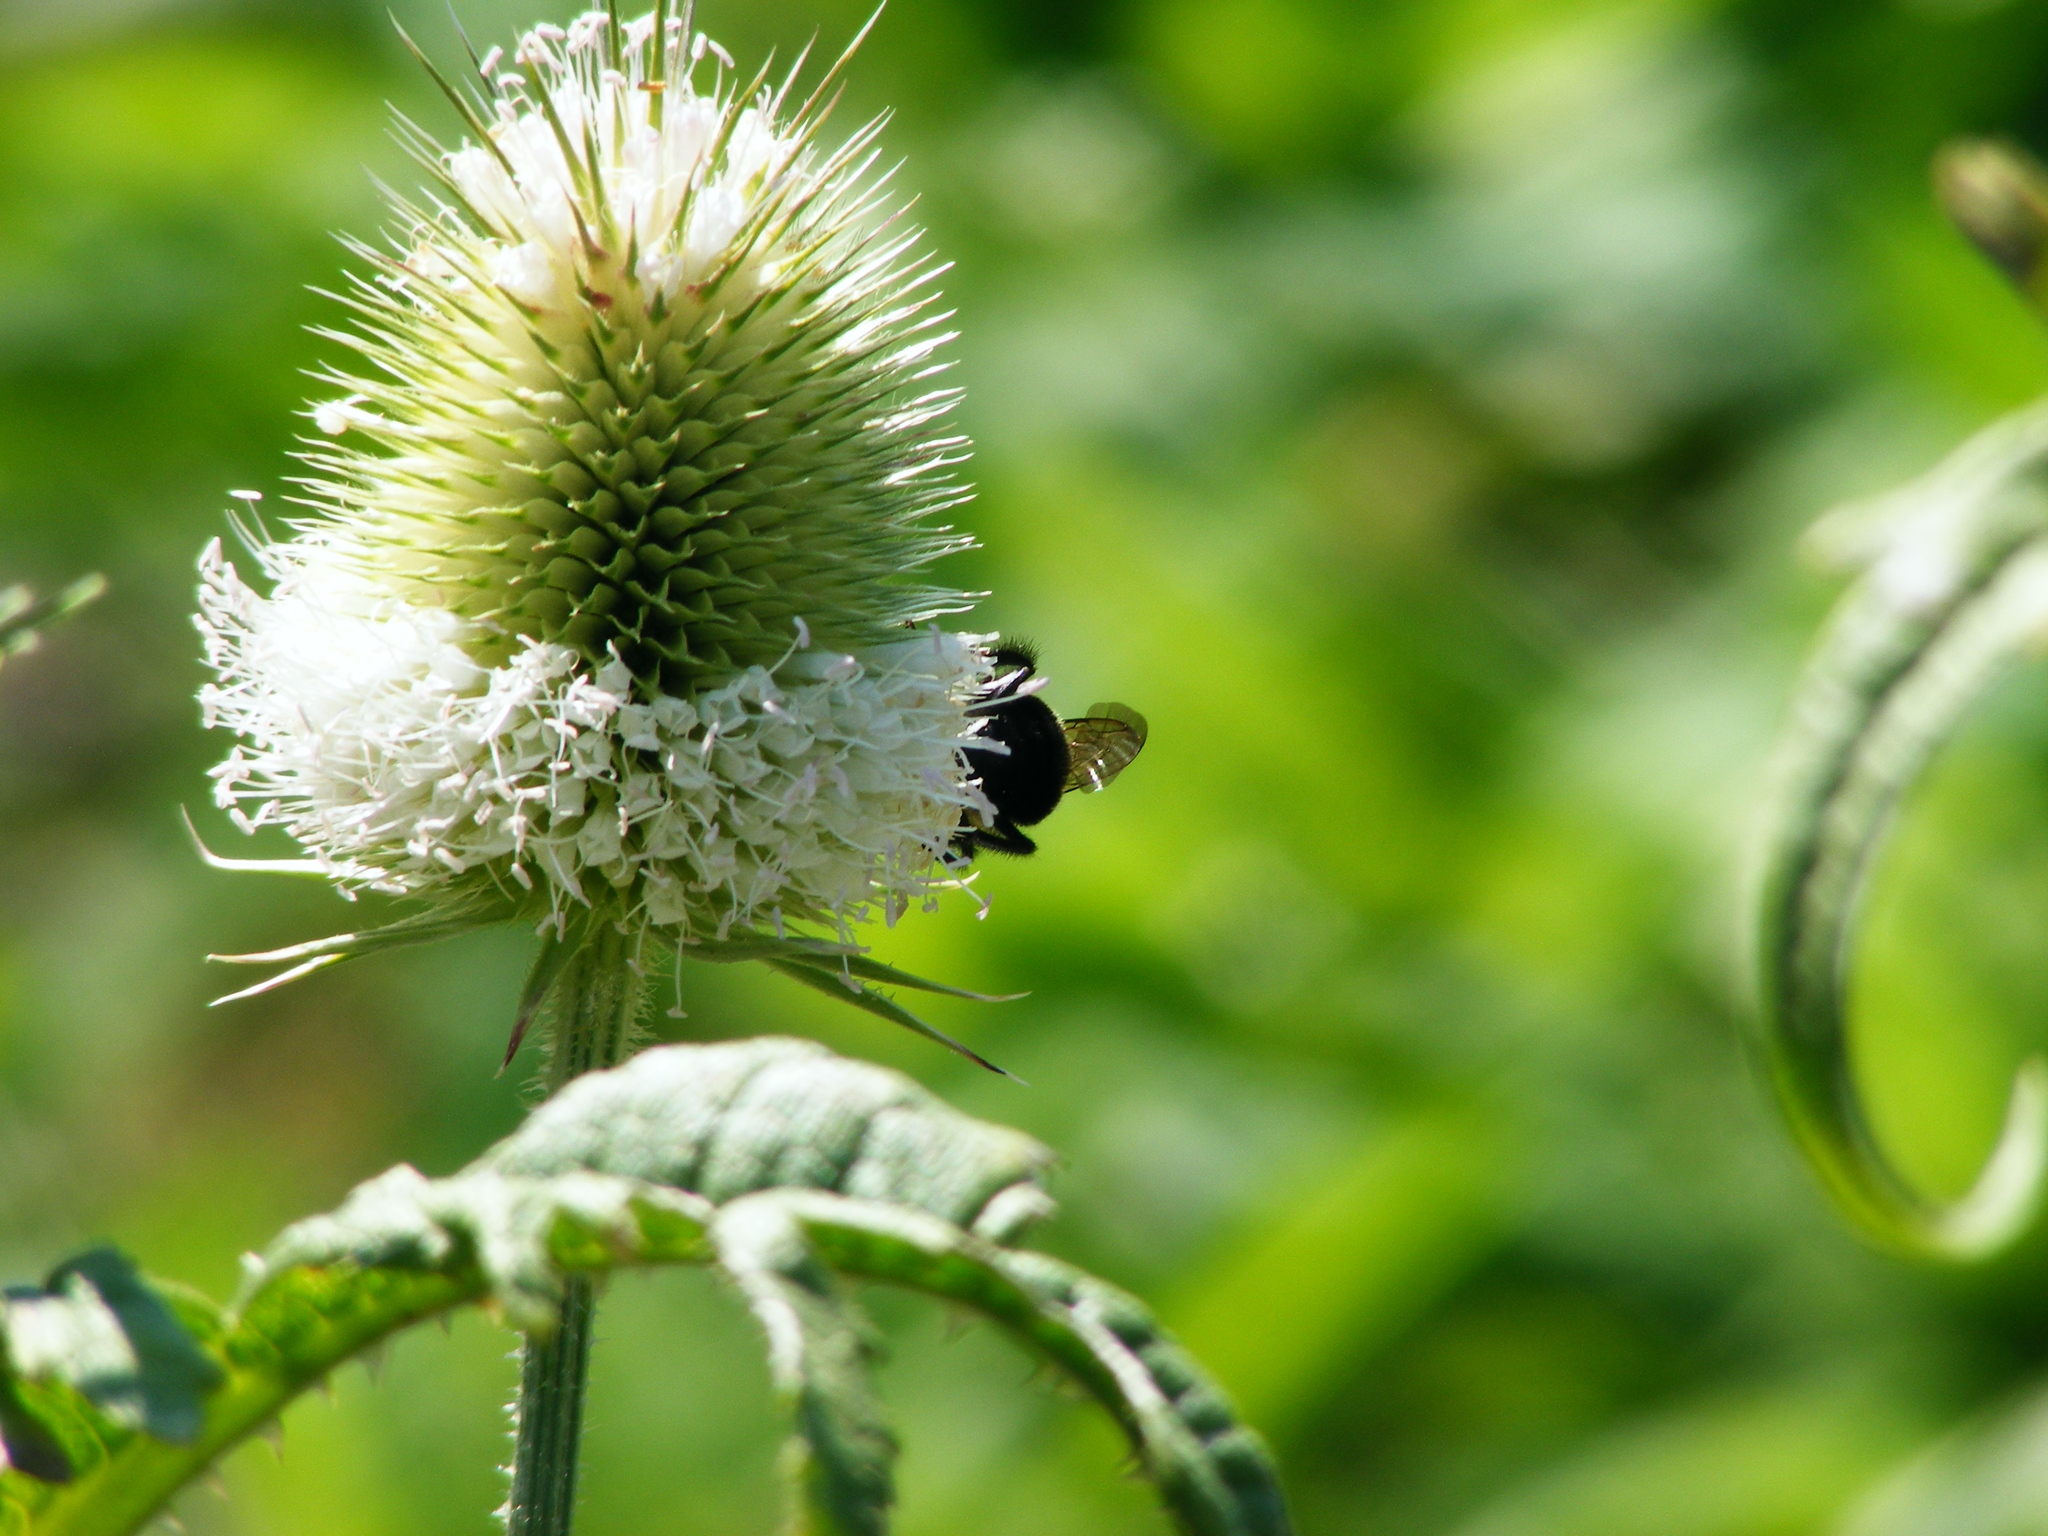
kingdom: Plantae
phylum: Tracheophyta
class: Magnoliopsida
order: Dipsacales
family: Caprifoliaceae
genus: Dipsacus
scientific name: Dipsacus laciniatus
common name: Cut-leaved teasel
